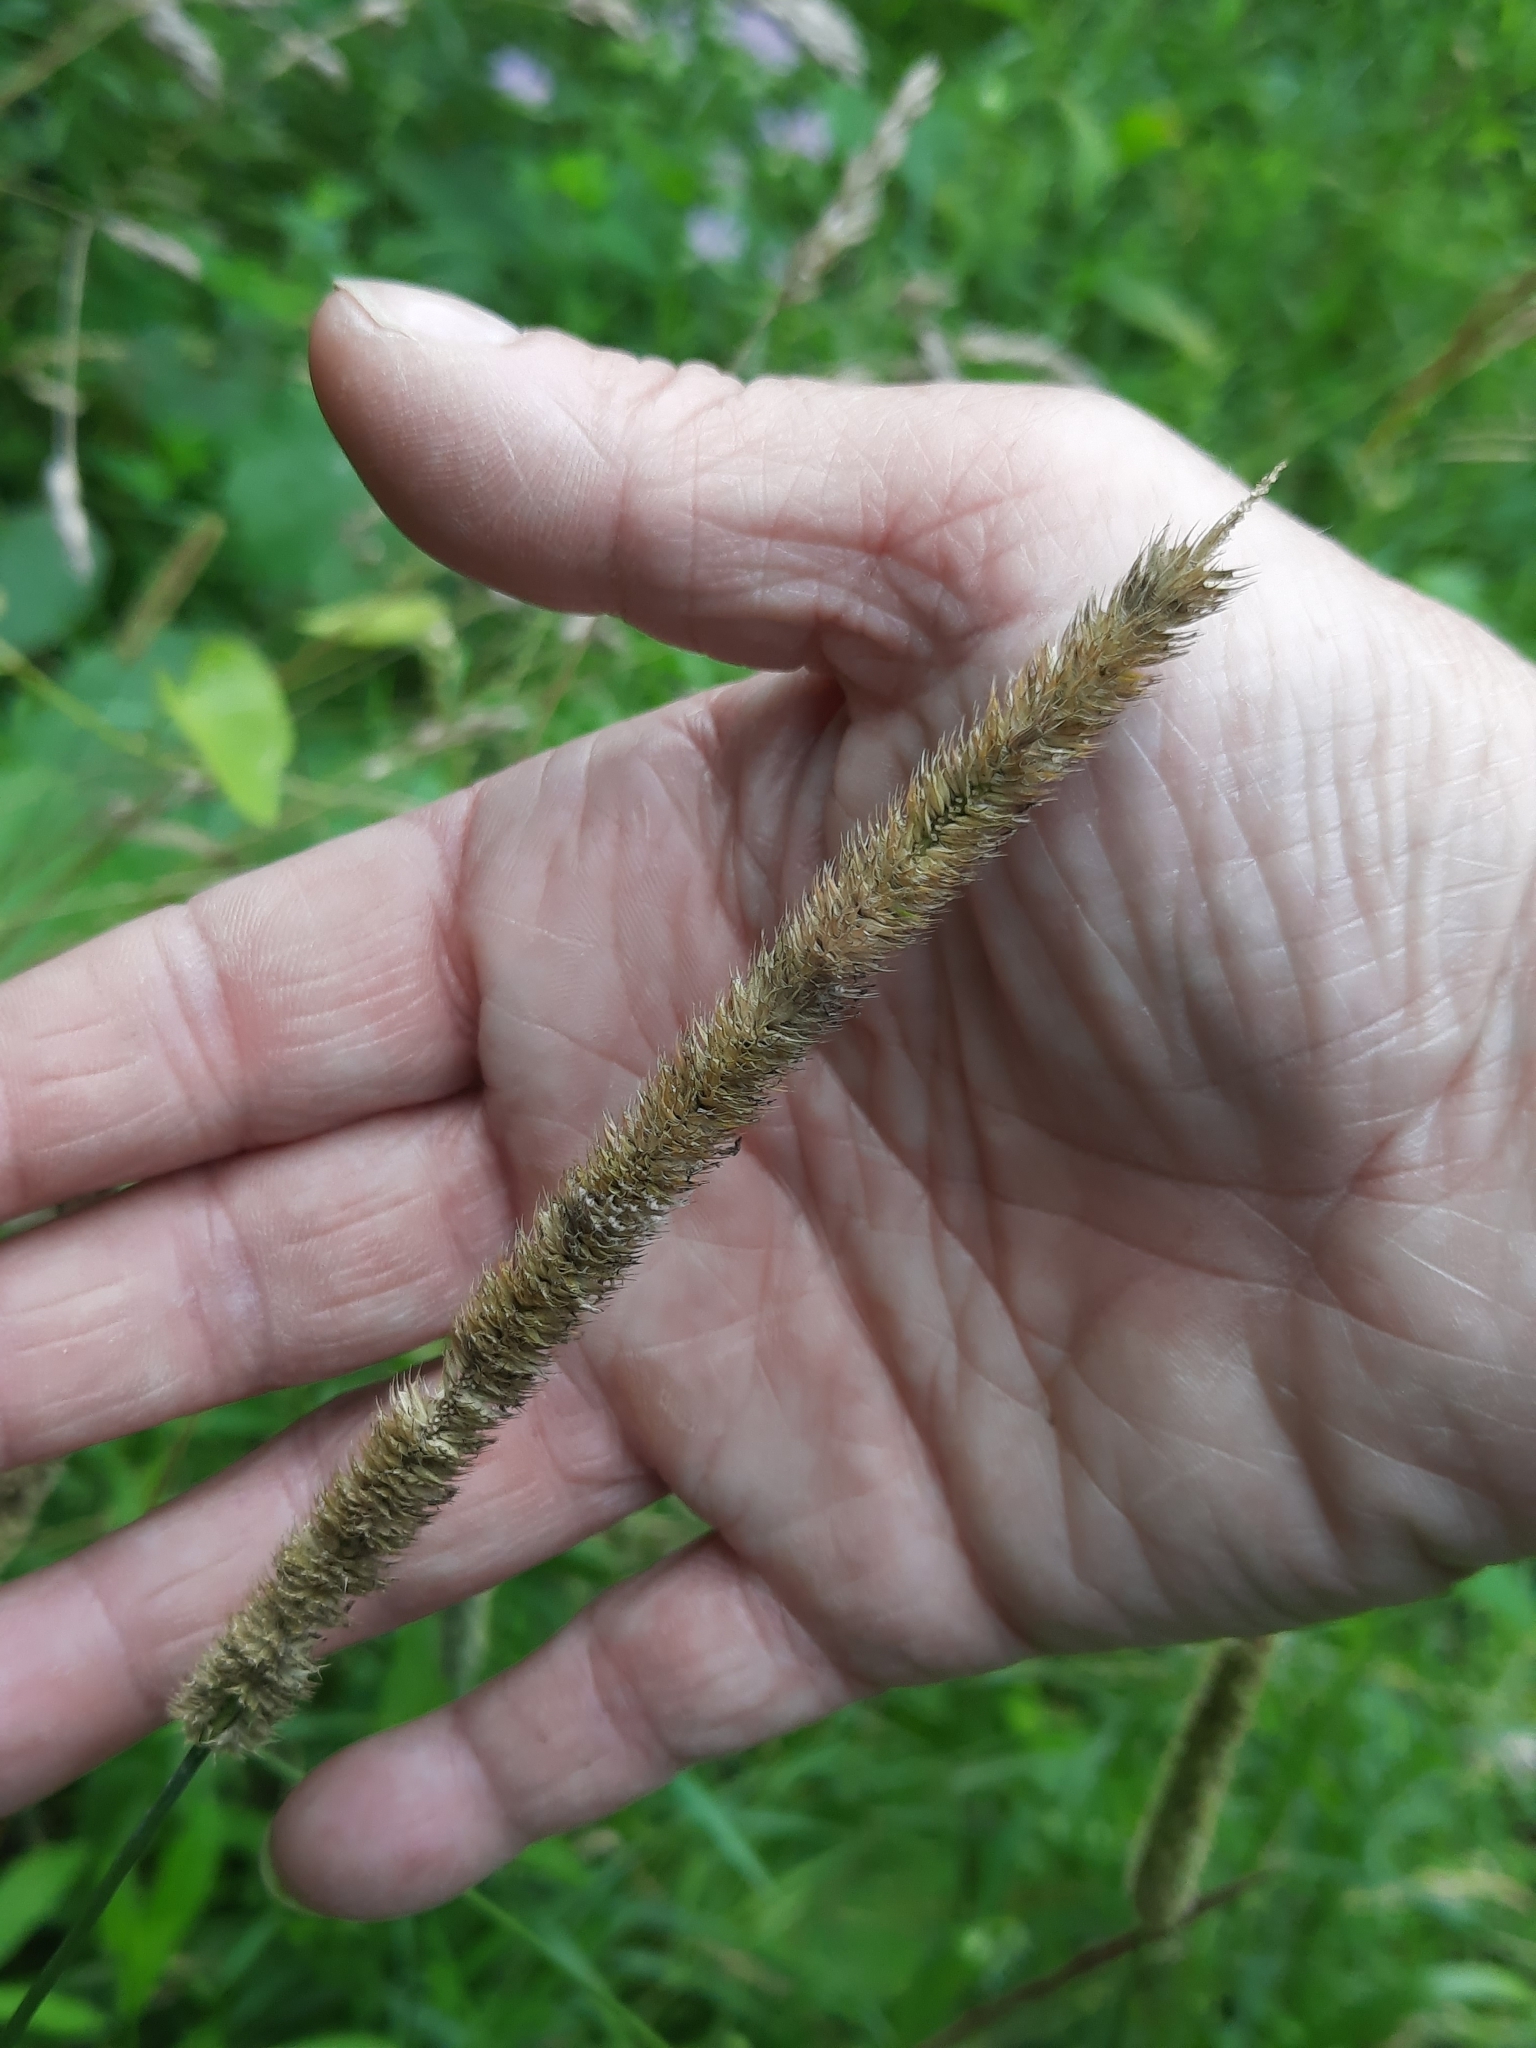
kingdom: Plantae
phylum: Tracheophyta
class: Liliopsida
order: Poales
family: Poaceae
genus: Phleum
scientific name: Phleum pratense
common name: Timothy grass
